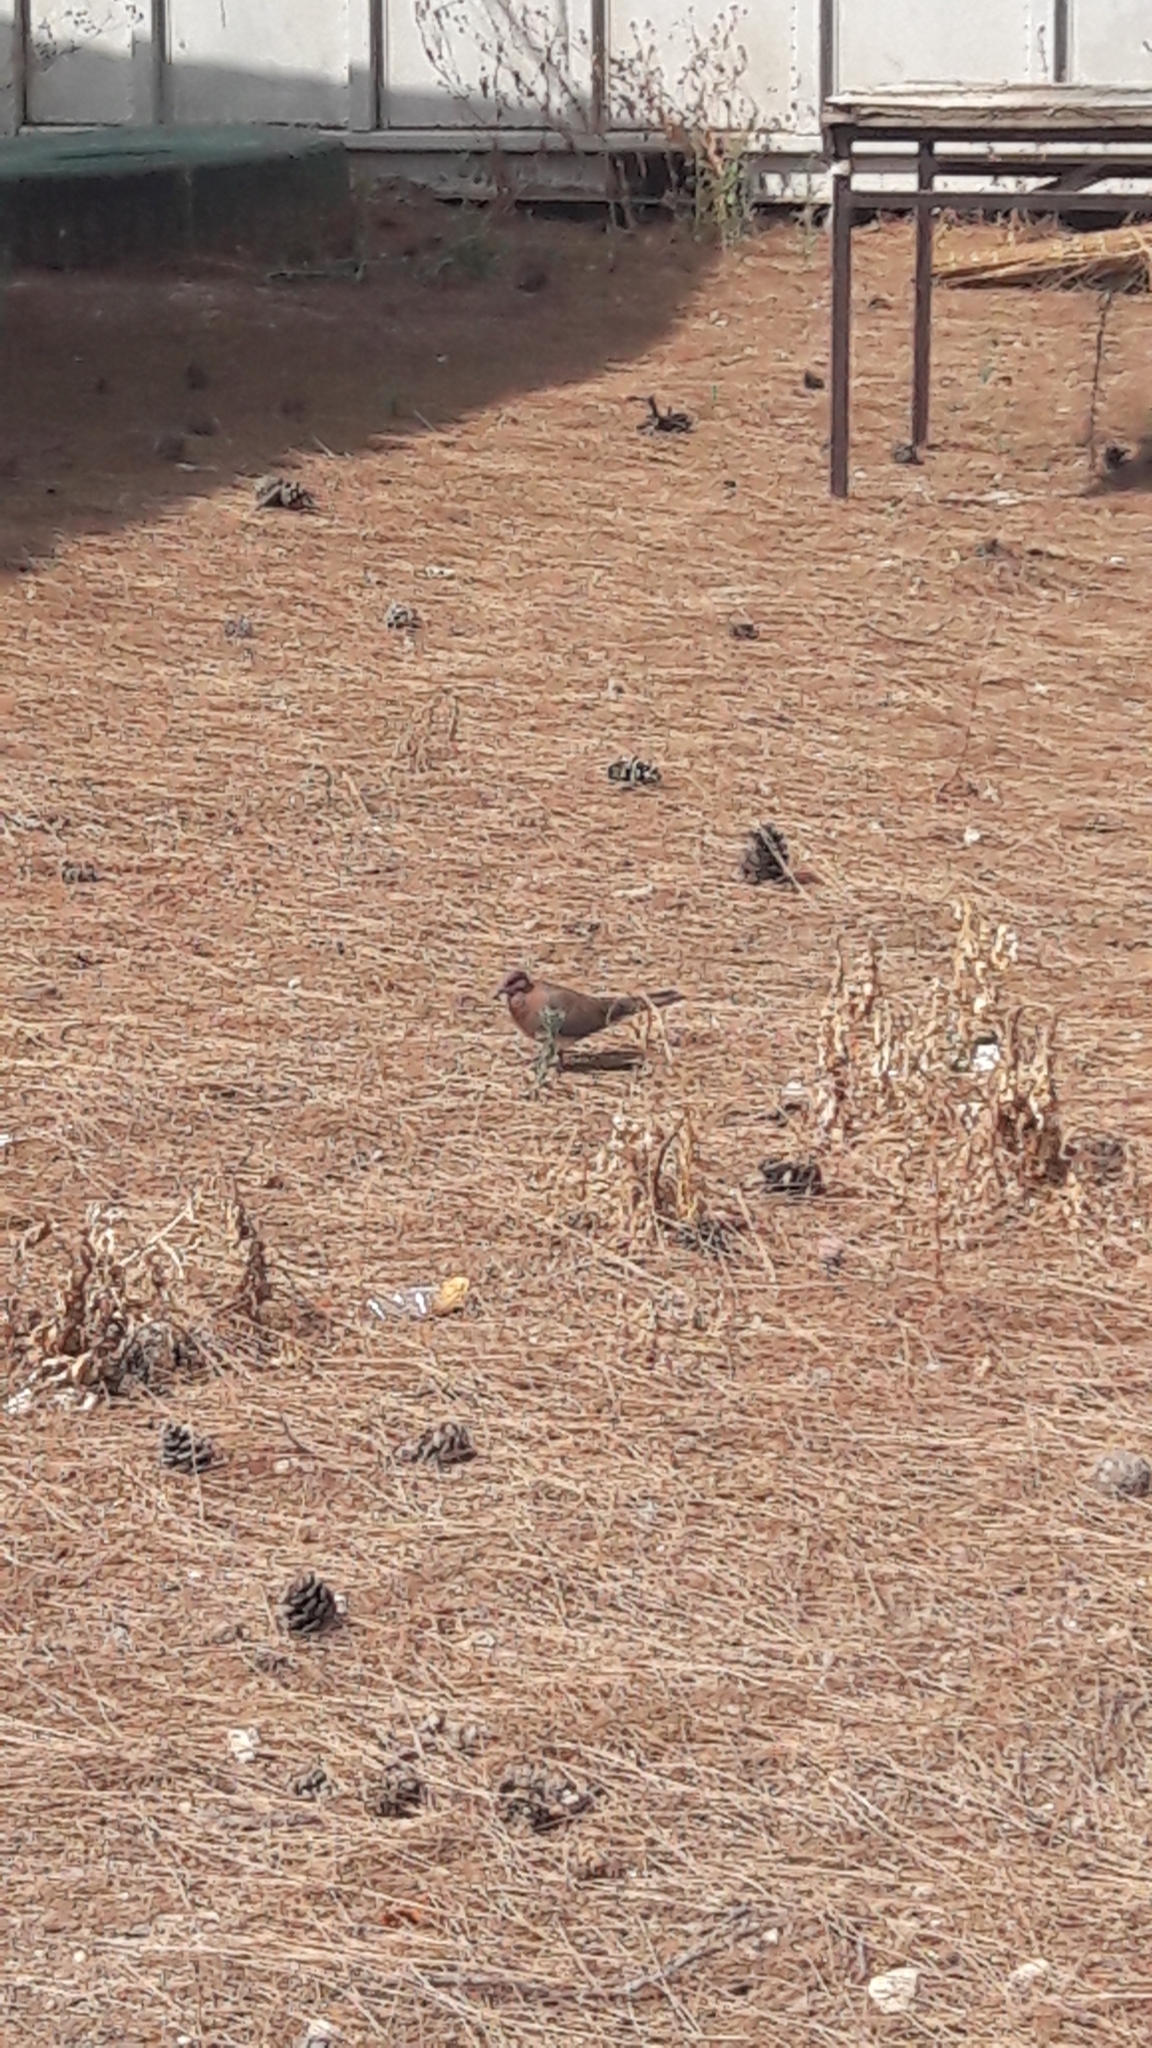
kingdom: Animalia
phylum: Chordata
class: Aves
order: Columbiformes
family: Columbidae
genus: Spilopelia
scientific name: Spilopelia senegalensis
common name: Laughing dove
